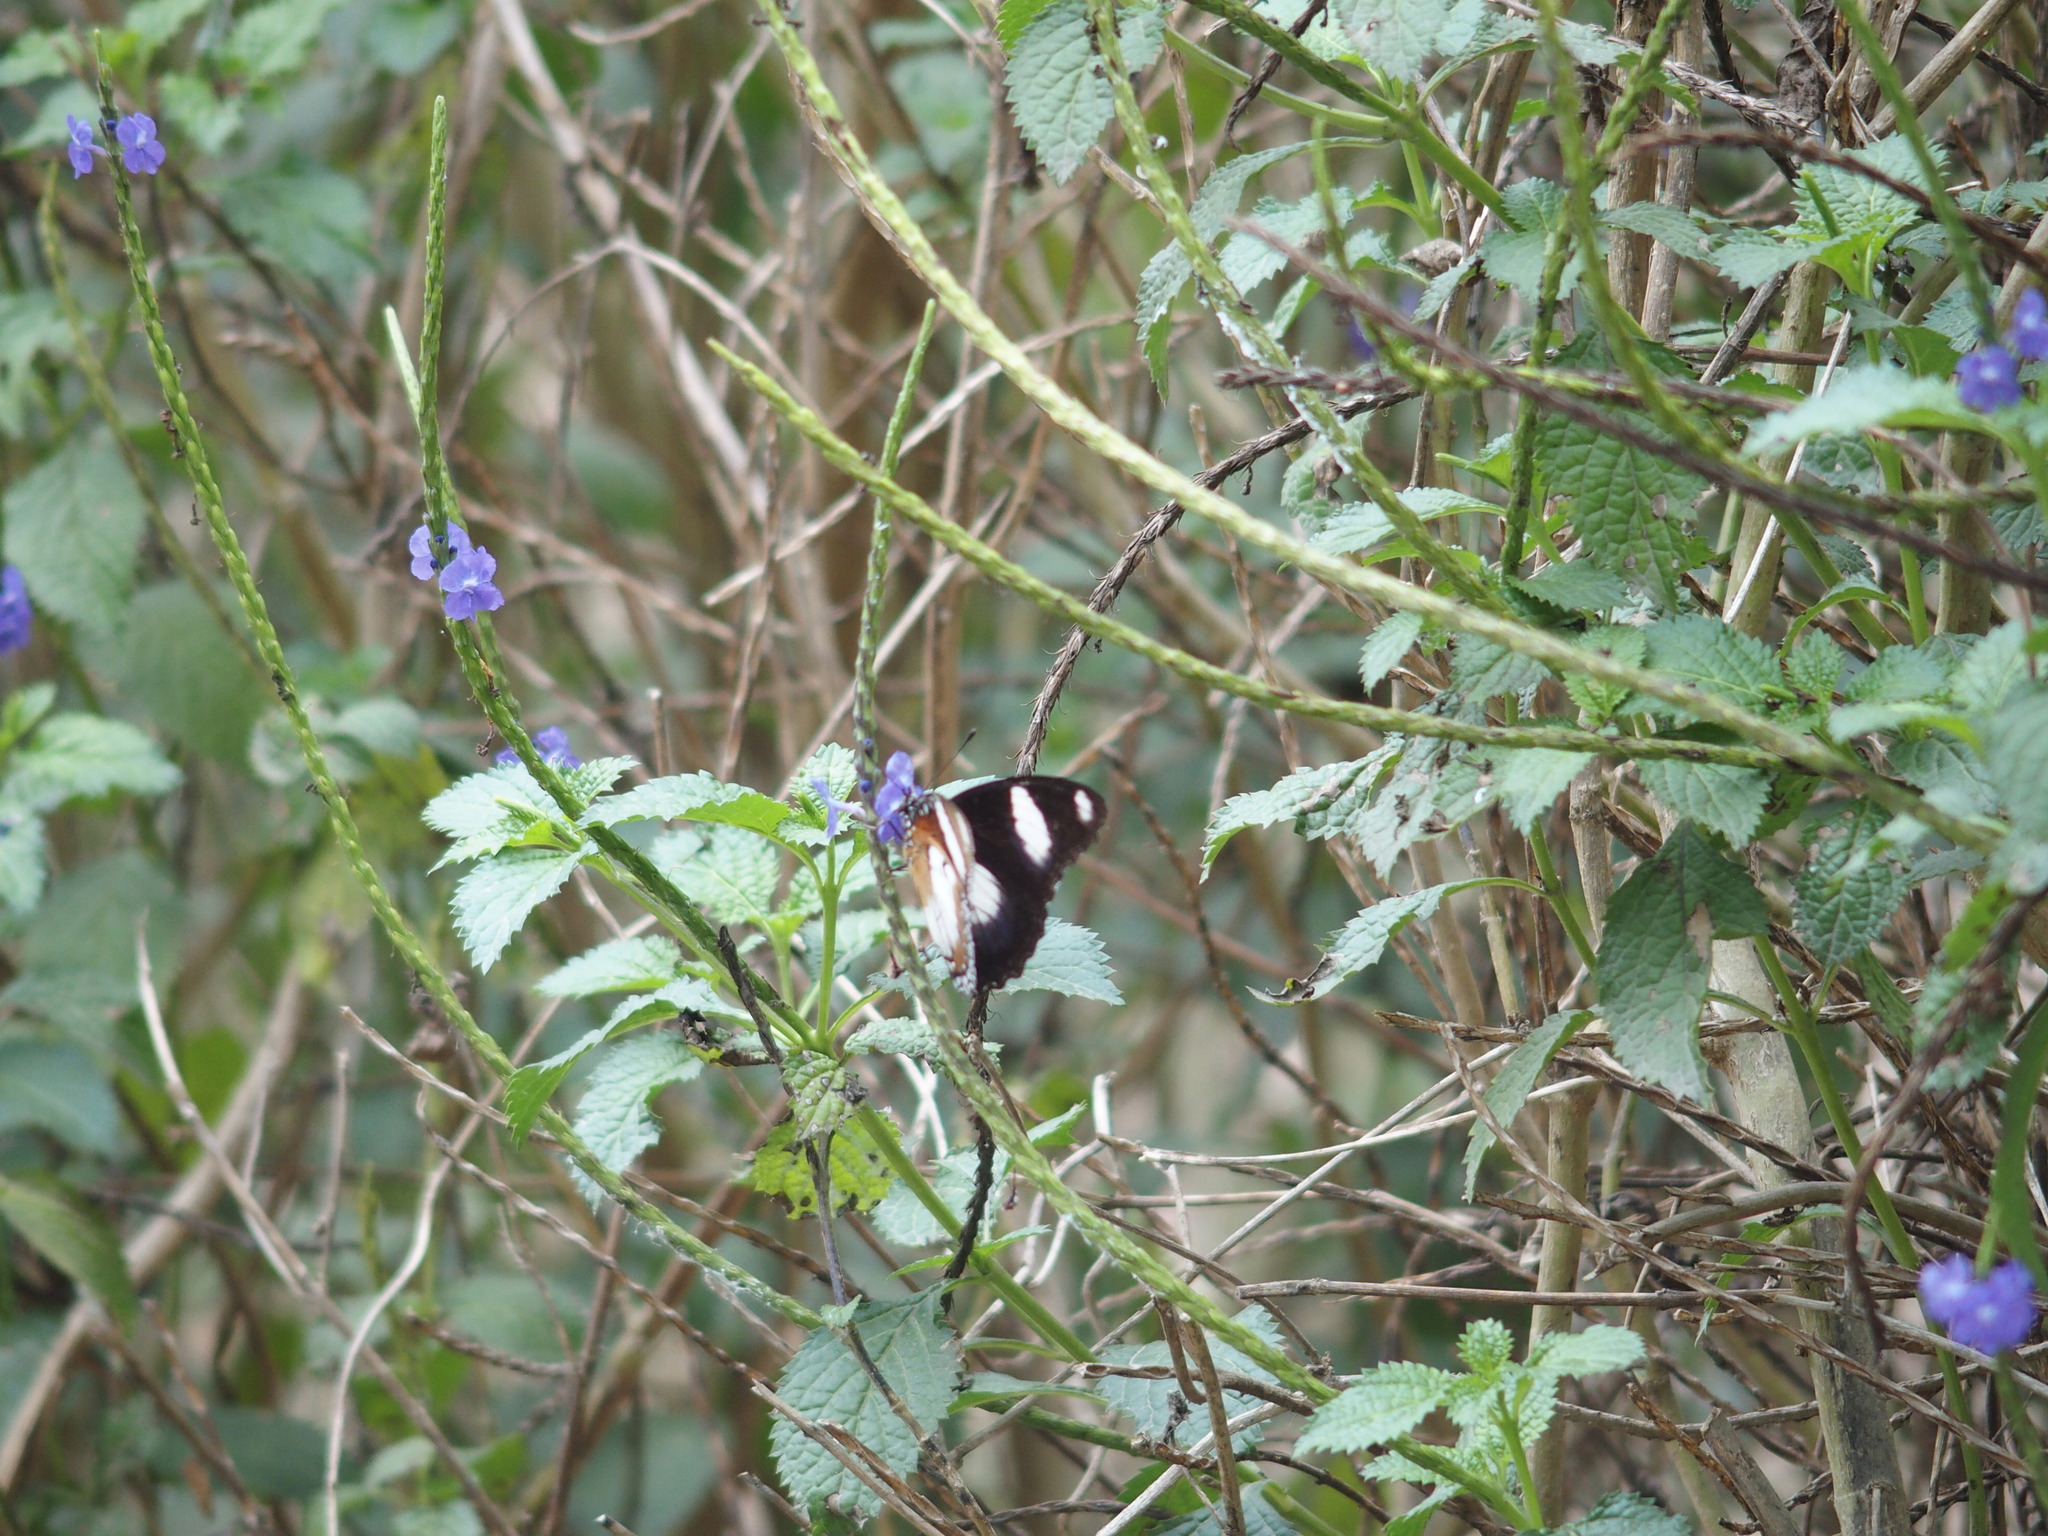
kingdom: Animalia
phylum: Arthropoda
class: Insecta
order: Lepidoptera
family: Nymphalidae
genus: Hypolimnas
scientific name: Hypolimnas misippus
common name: False plain tiger
